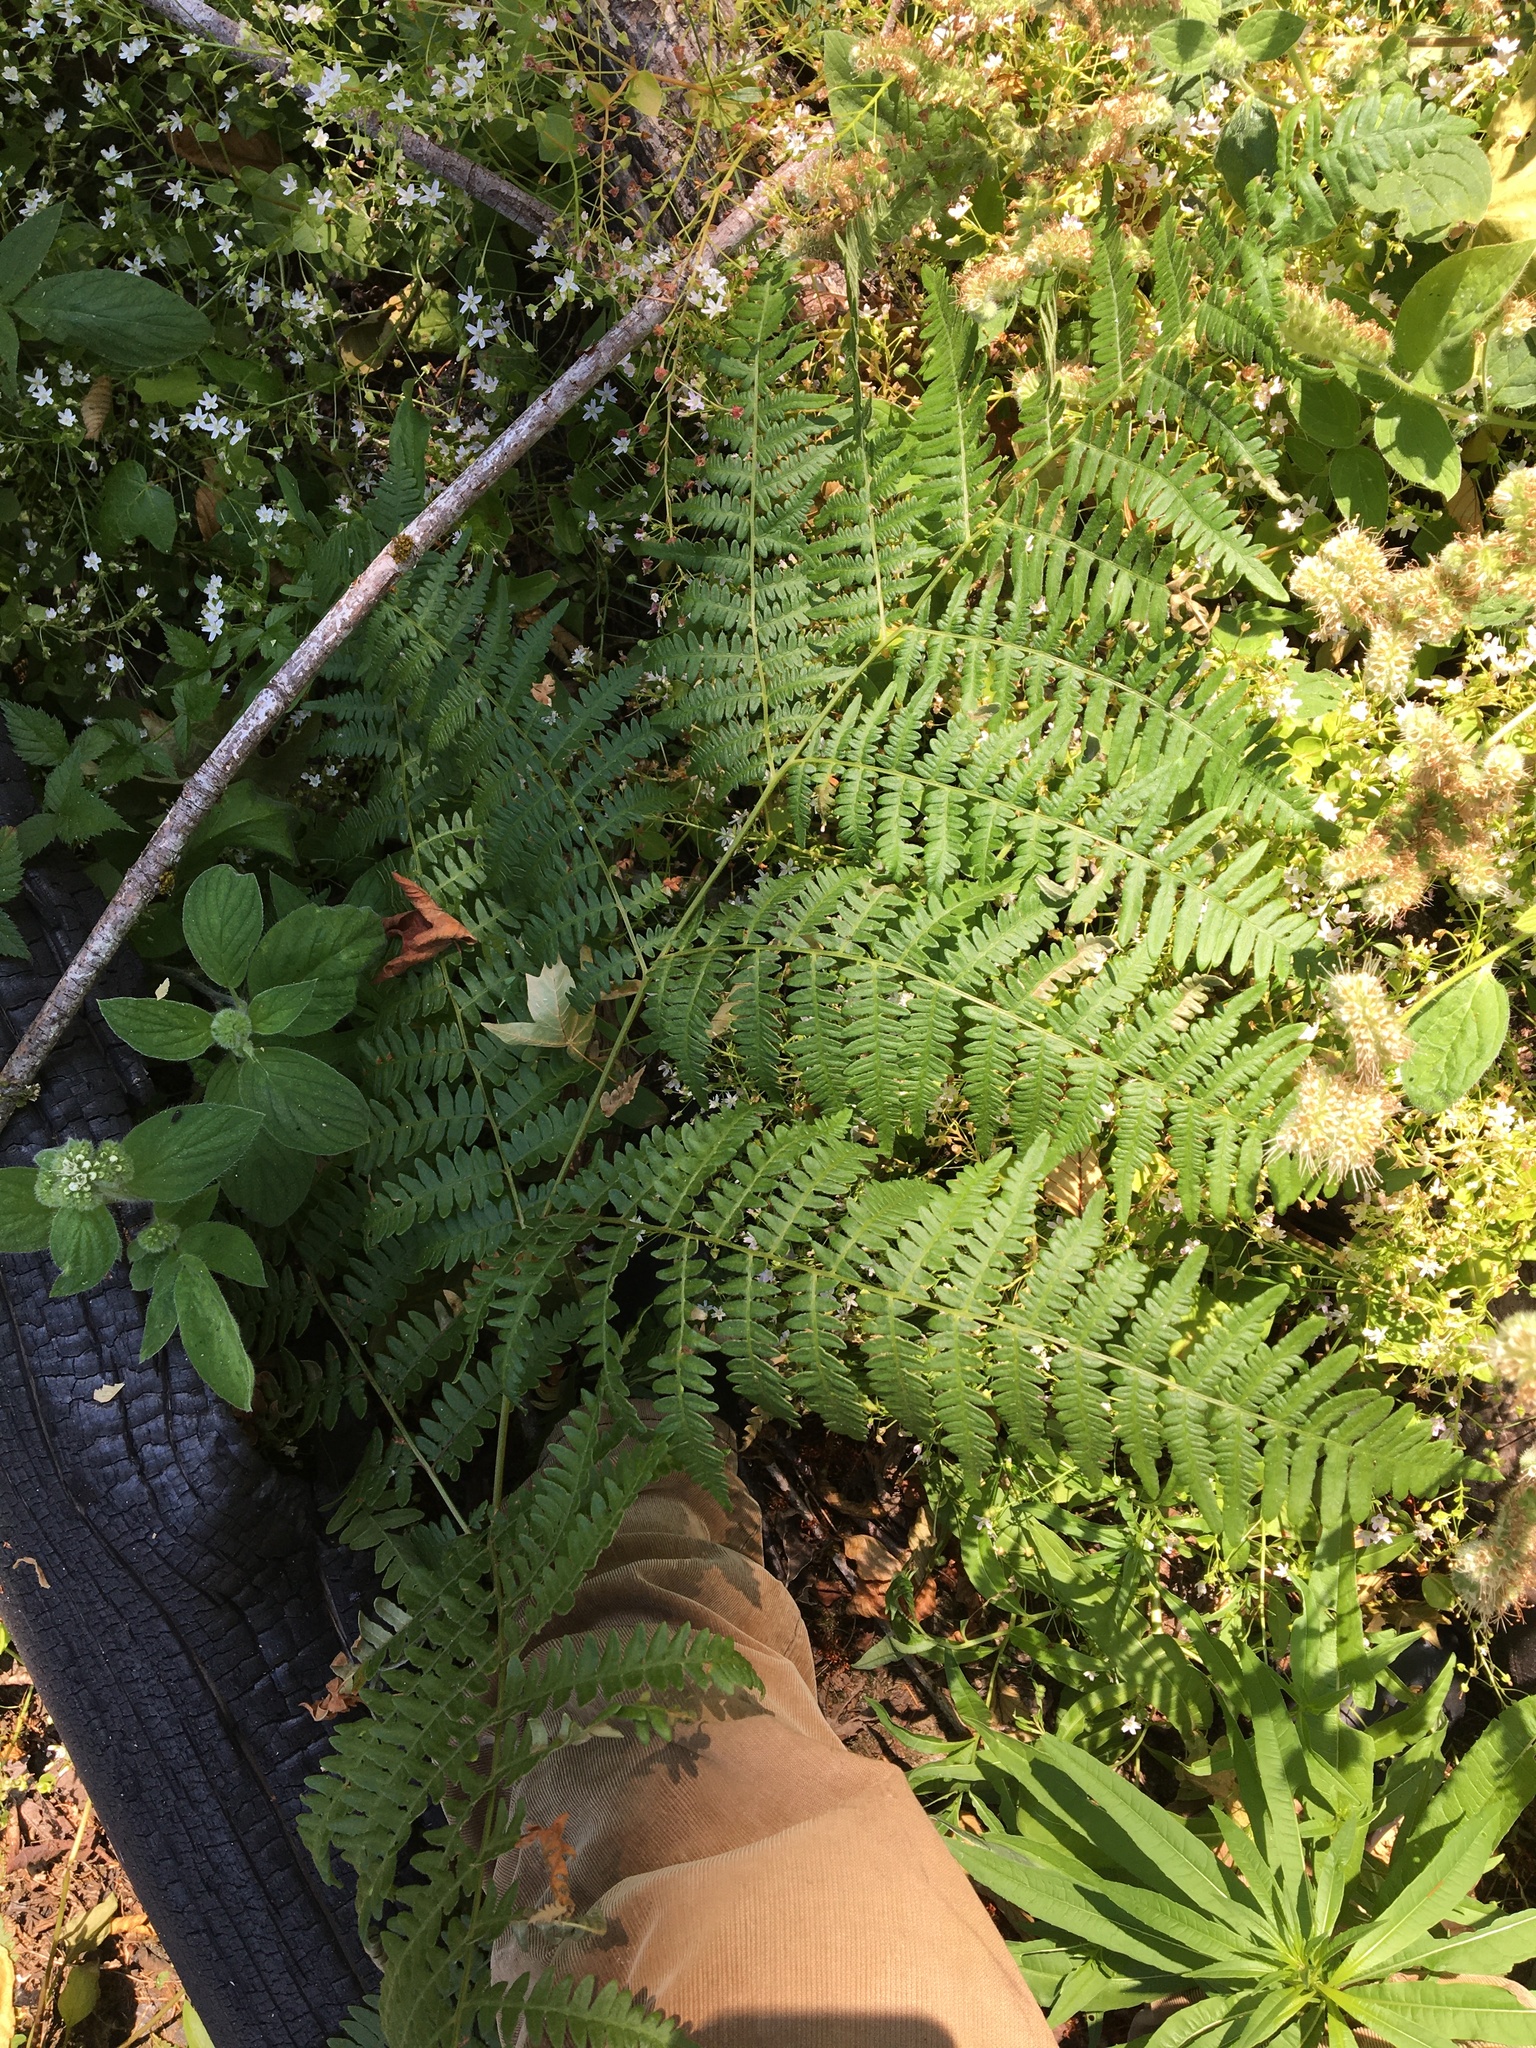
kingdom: Plantae
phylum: Tracheophyta
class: Polypodiopsida
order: Polypodiales
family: Dennstaedtiaceae
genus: Pteridium
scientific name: Pteridium aquilinum
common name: Bracken
